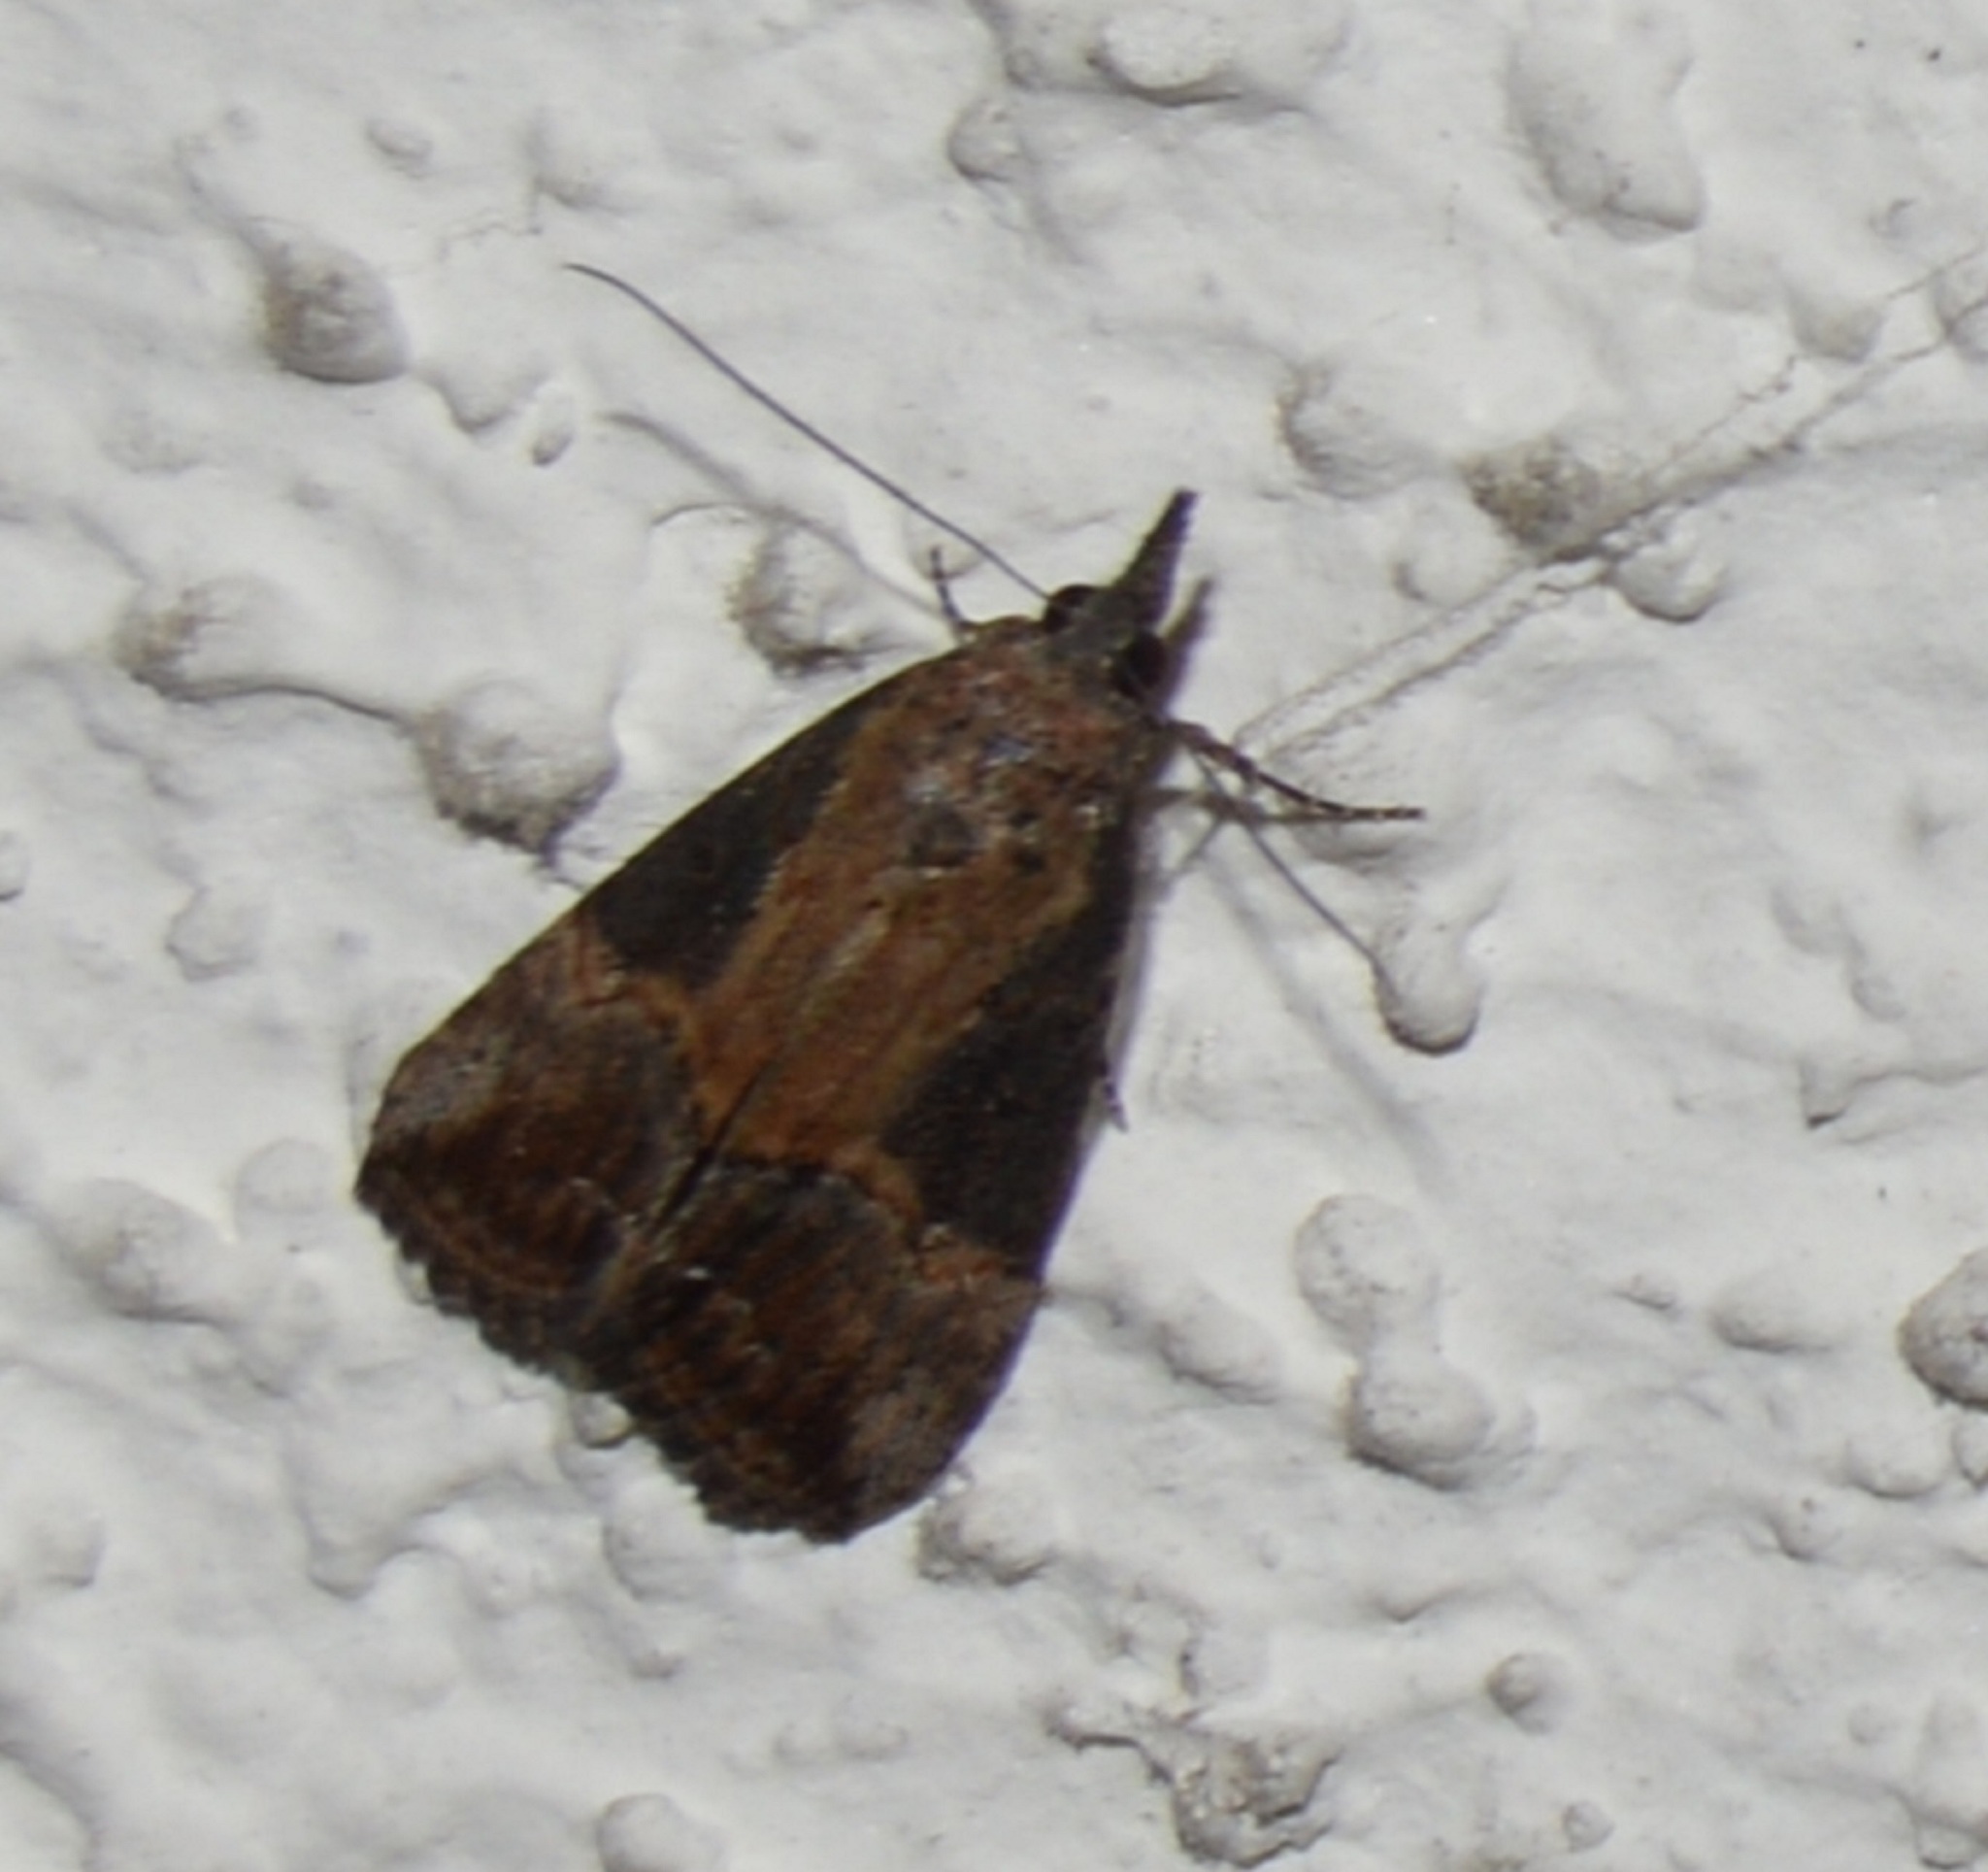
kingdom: Animalia
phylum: Arthropoda
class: Insecta
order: Lepidoptera
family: Erebidae
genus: Hypena
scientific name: Hypena scabra
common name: Green cloverworm
